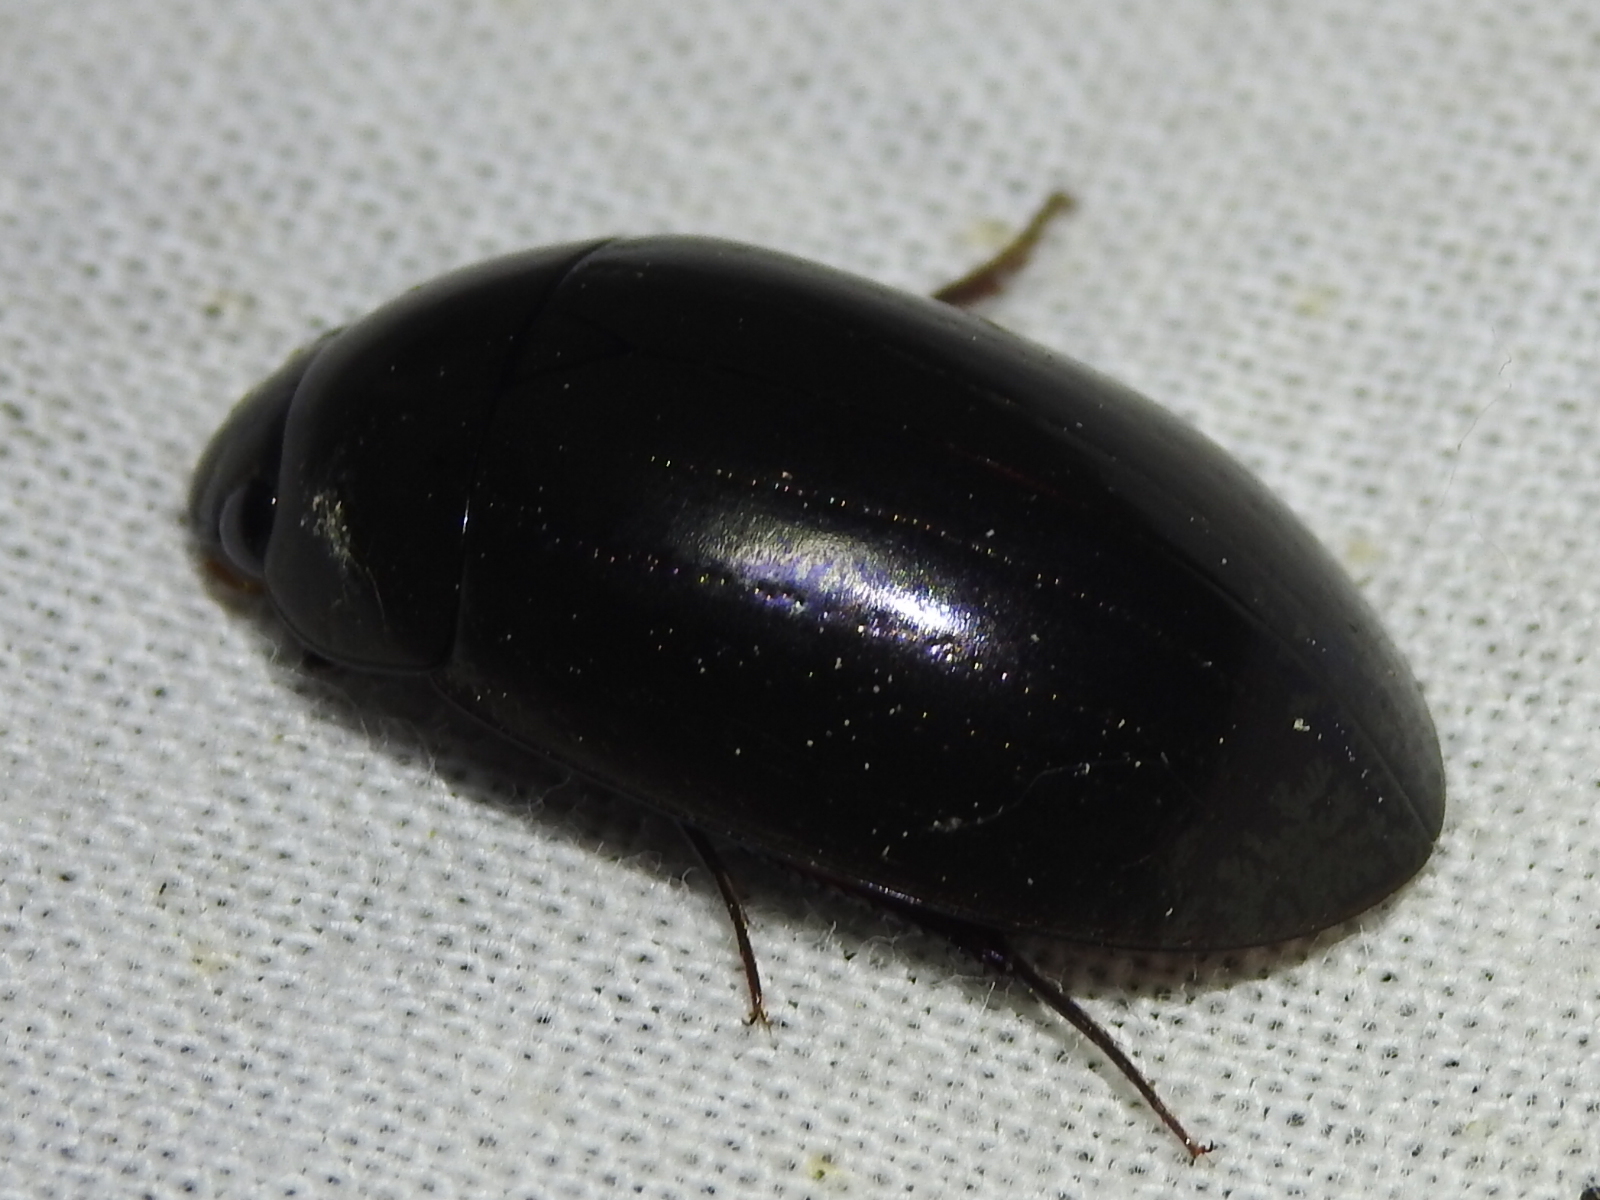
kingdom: Animalia
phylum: Arthropoda
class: Insecta
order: Coleoptera
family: Hydrophilidae
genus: Hydrochara
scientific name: Hydrochara
